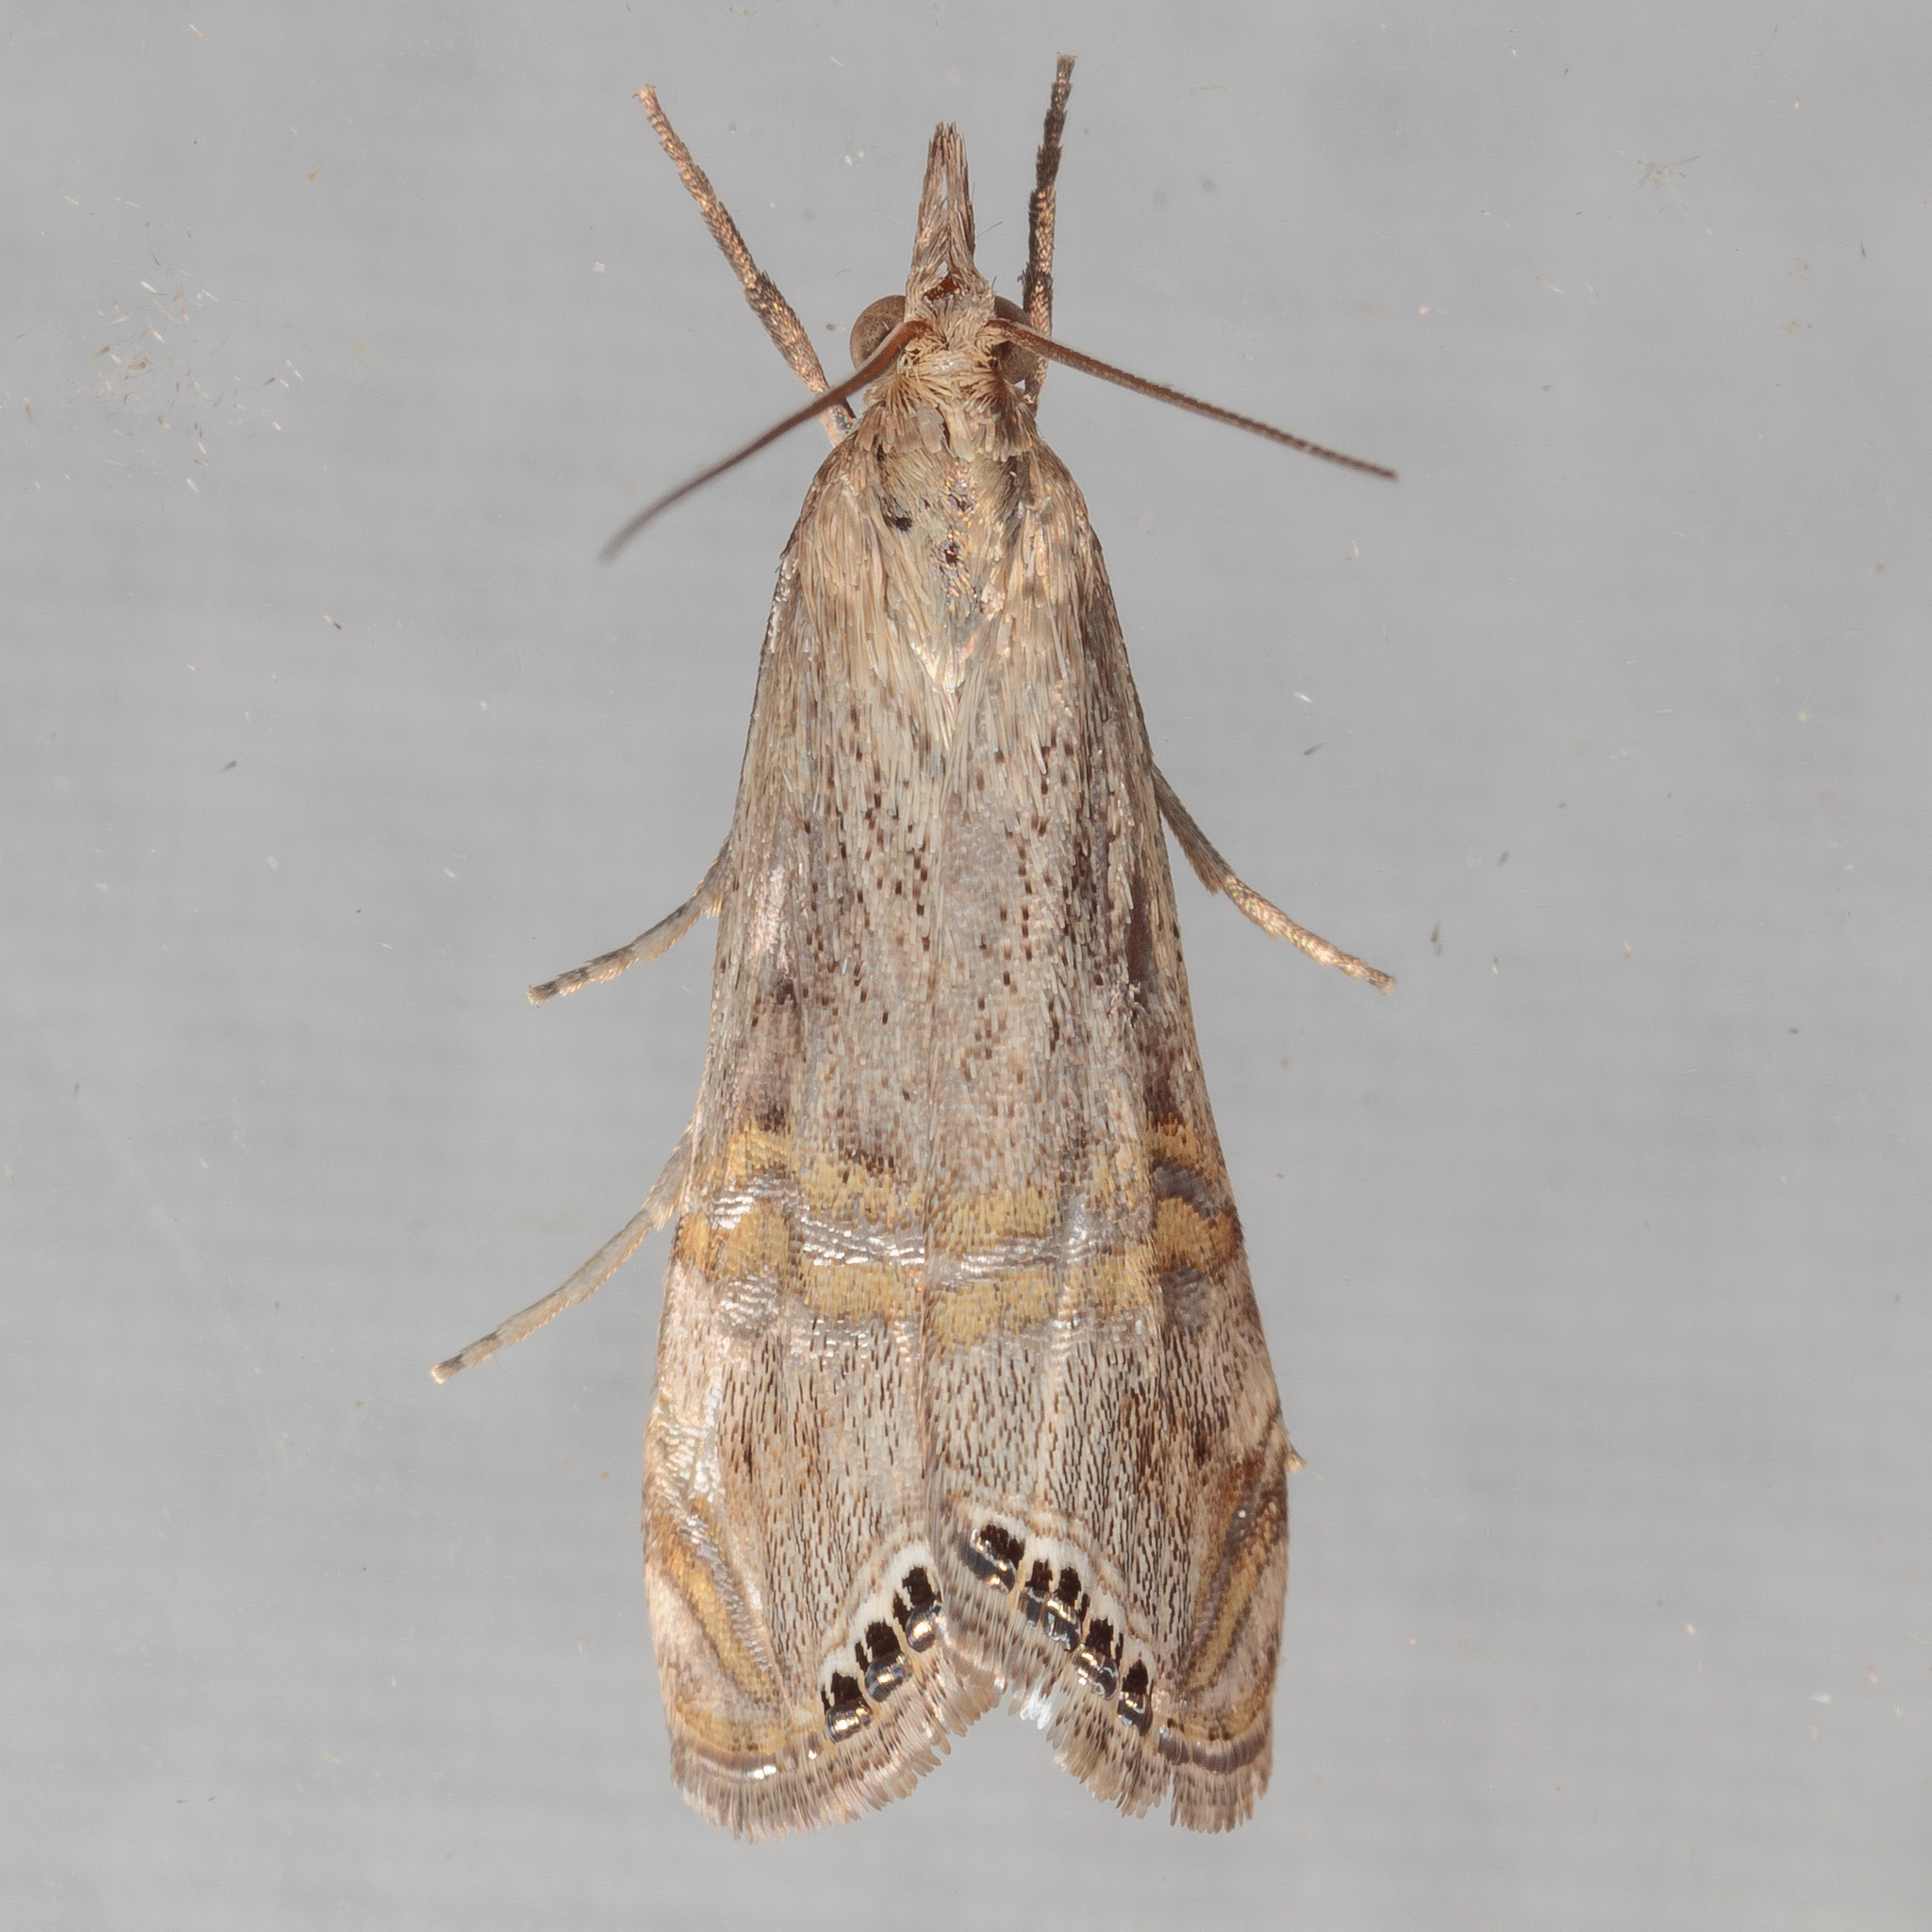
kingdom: Animalia
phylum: Arthropoda
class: Insecta
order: Lepidoptera
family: Crambidae
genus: Euchromius
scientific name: Euchromius ocellea
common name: Necklace veneer moth
